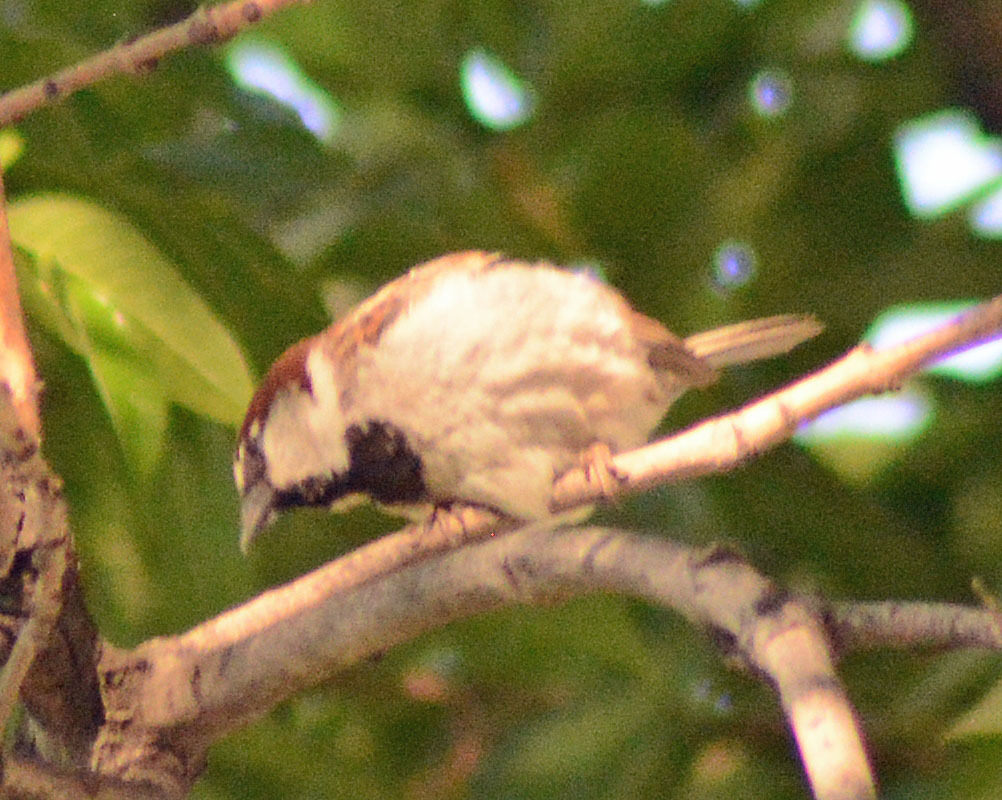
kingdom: Animalia
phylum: Chordata
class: Aves
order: Passeriformes
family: Passeridae
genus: Passer
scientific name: Passer domesticus
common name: House sparrow
